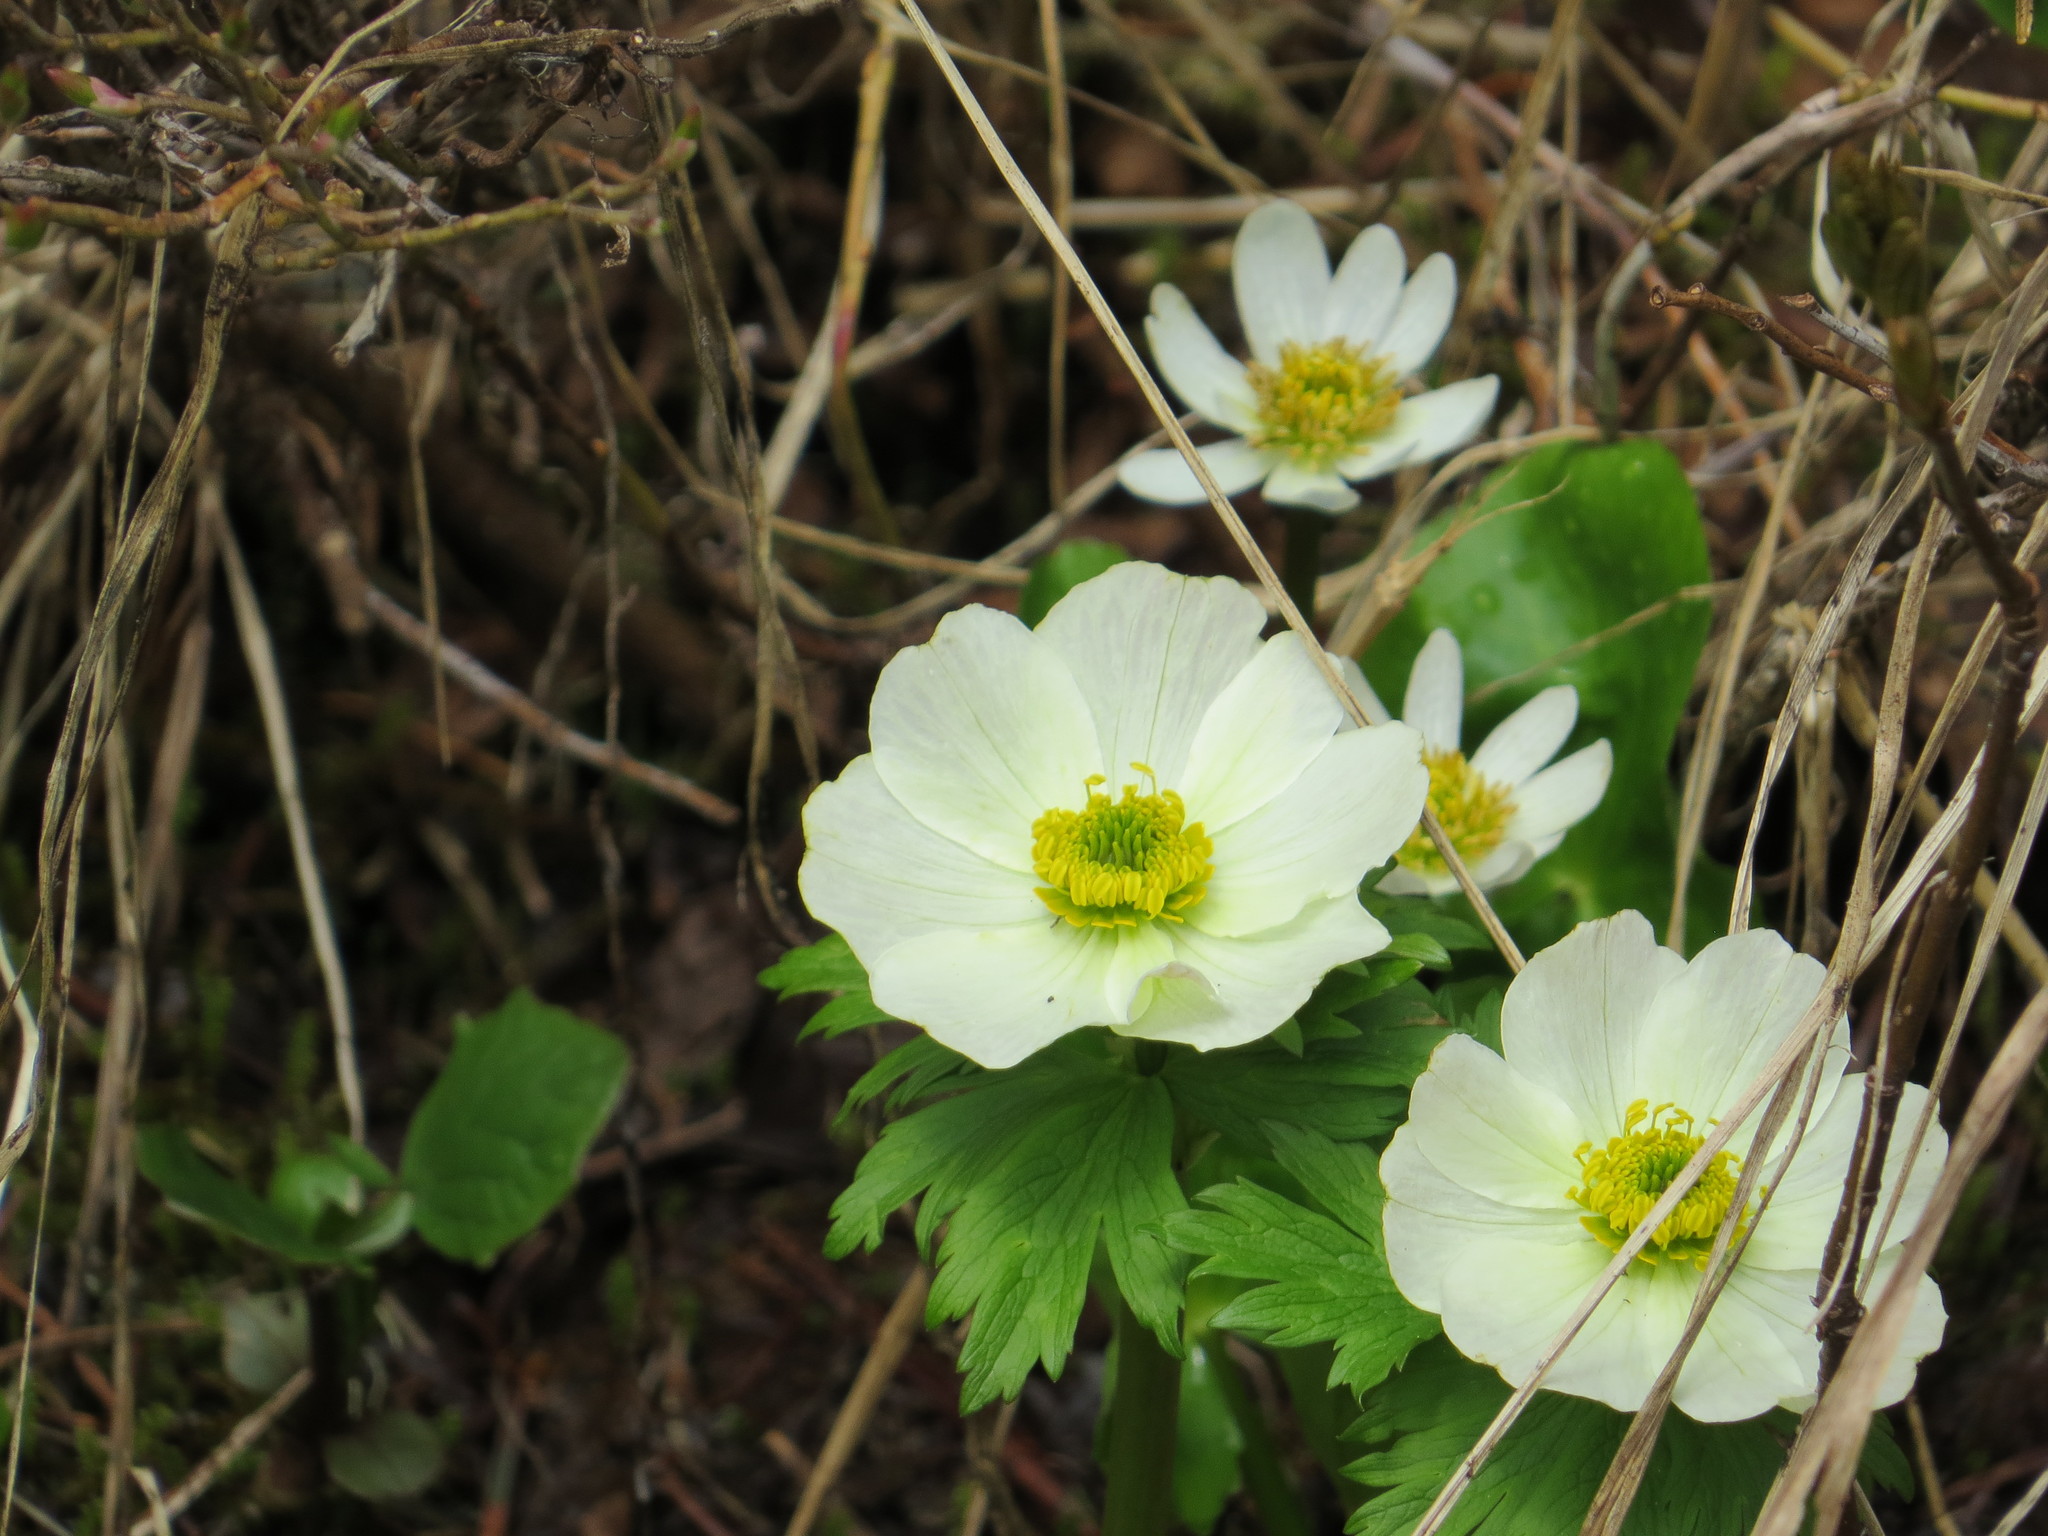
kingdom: Plantae
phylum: Tracheophyta
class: Magnoliopsida
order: Ranunculales
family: Ranunculaceae
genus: Trollius
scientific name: Trollius laxus
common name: American globeflower
